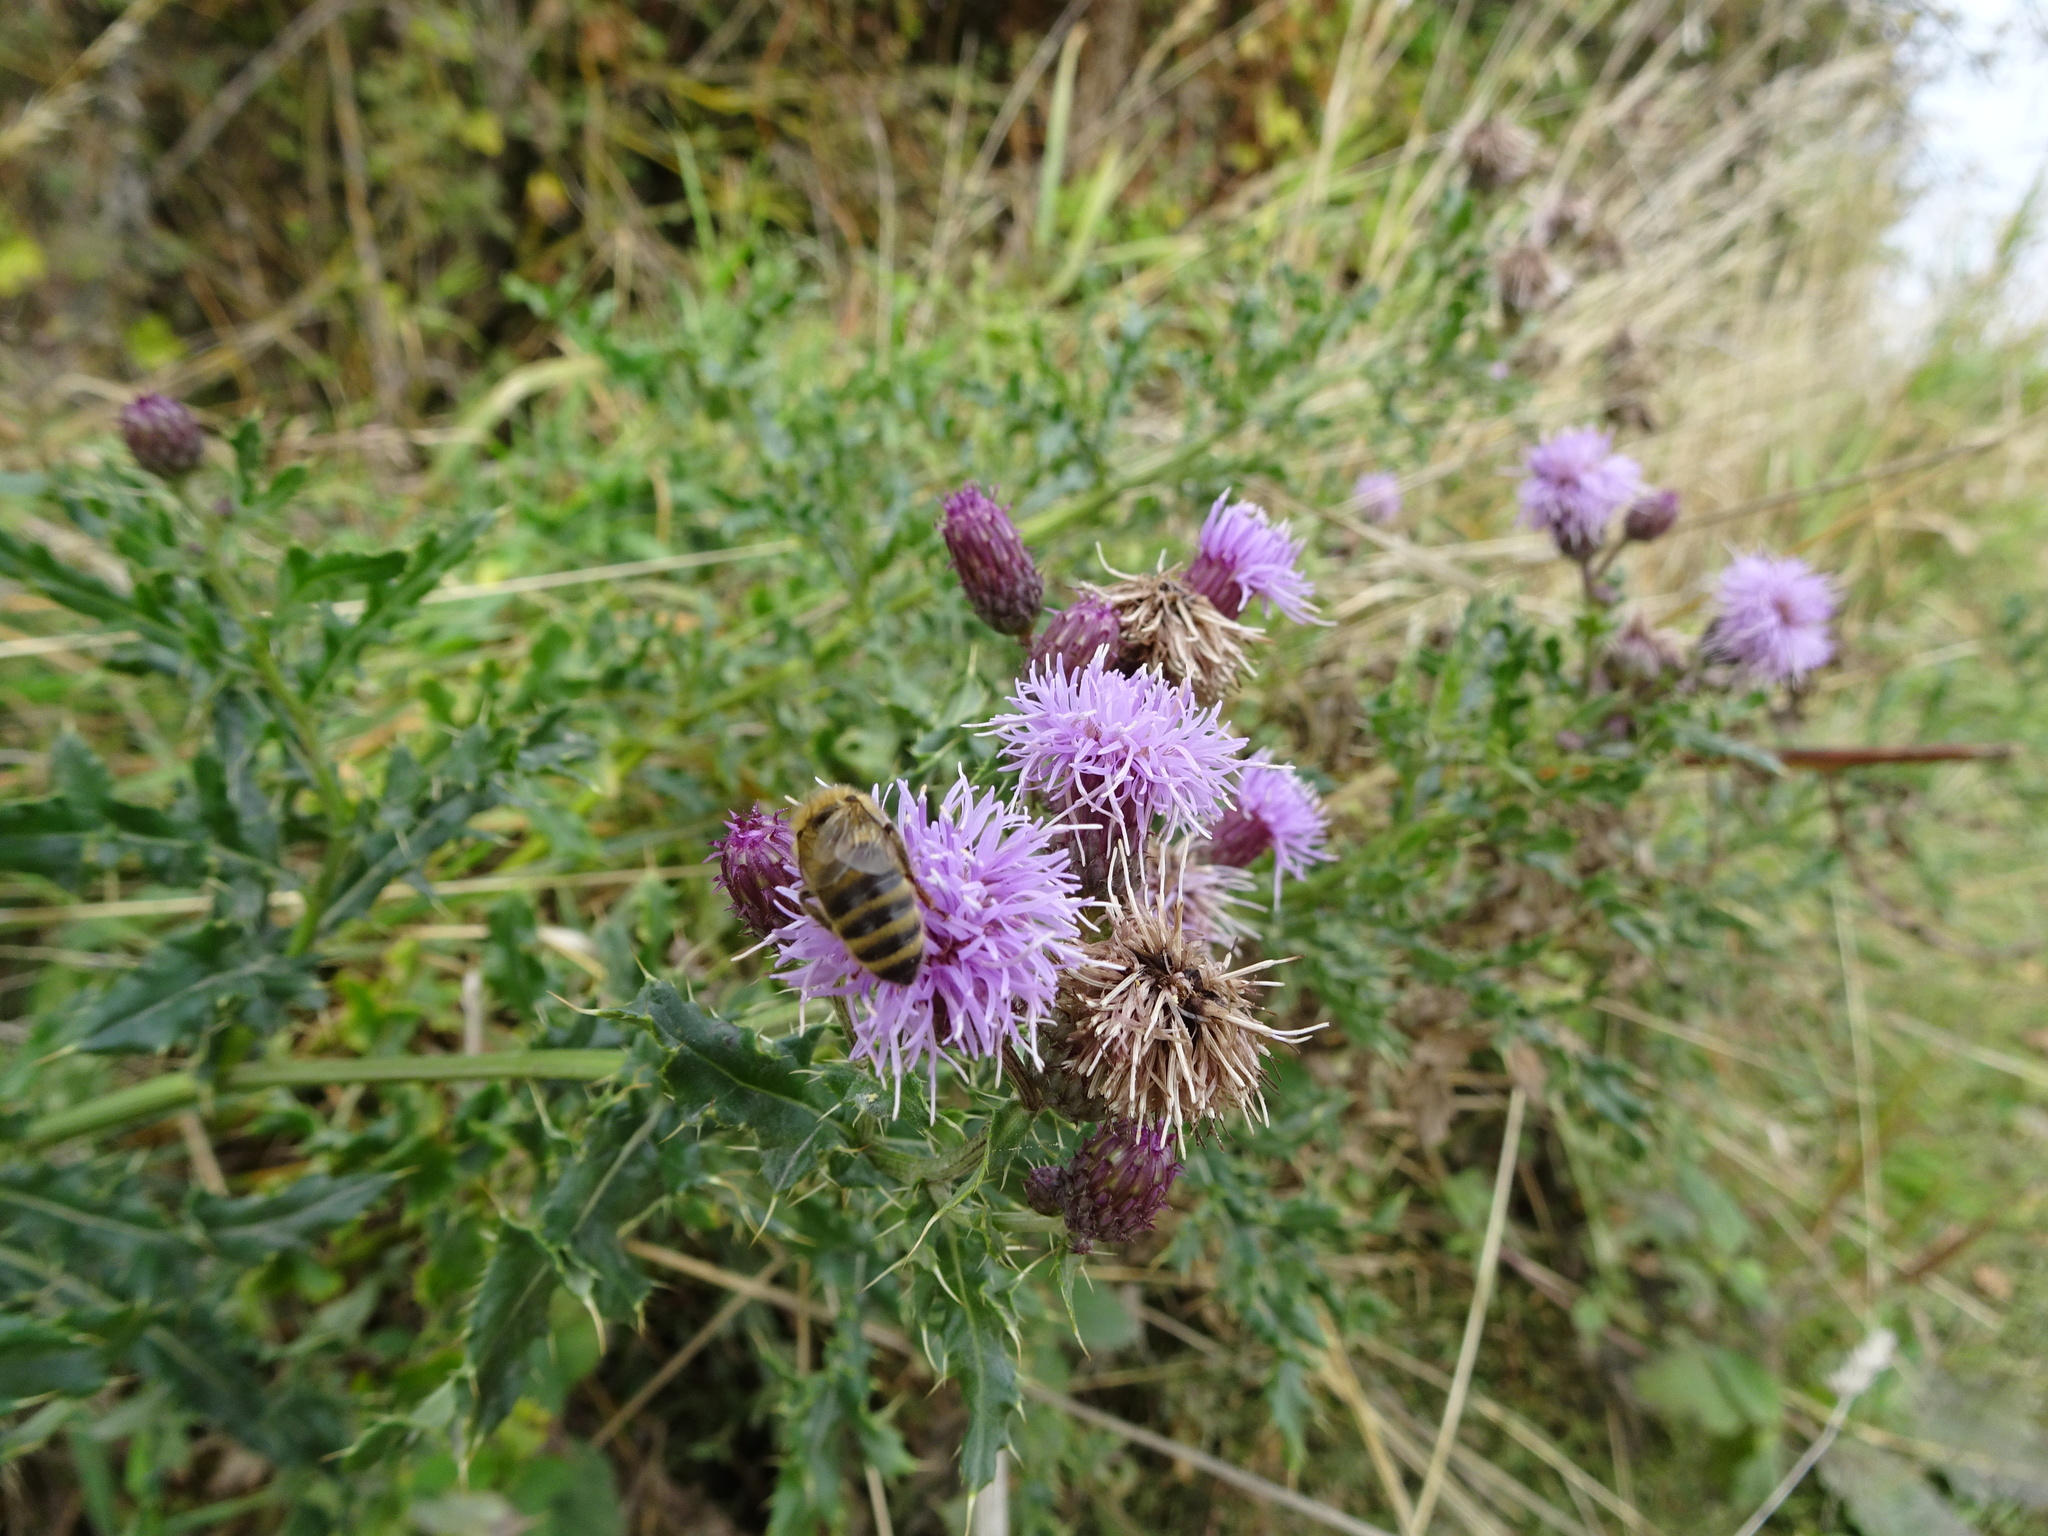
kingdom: Plantae
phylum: Tracheophyta
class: Magnoliopsida
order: Asterales
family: Asteraceae
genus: Cirsium
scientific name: Cirsium arvense
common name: Creeping thistle
